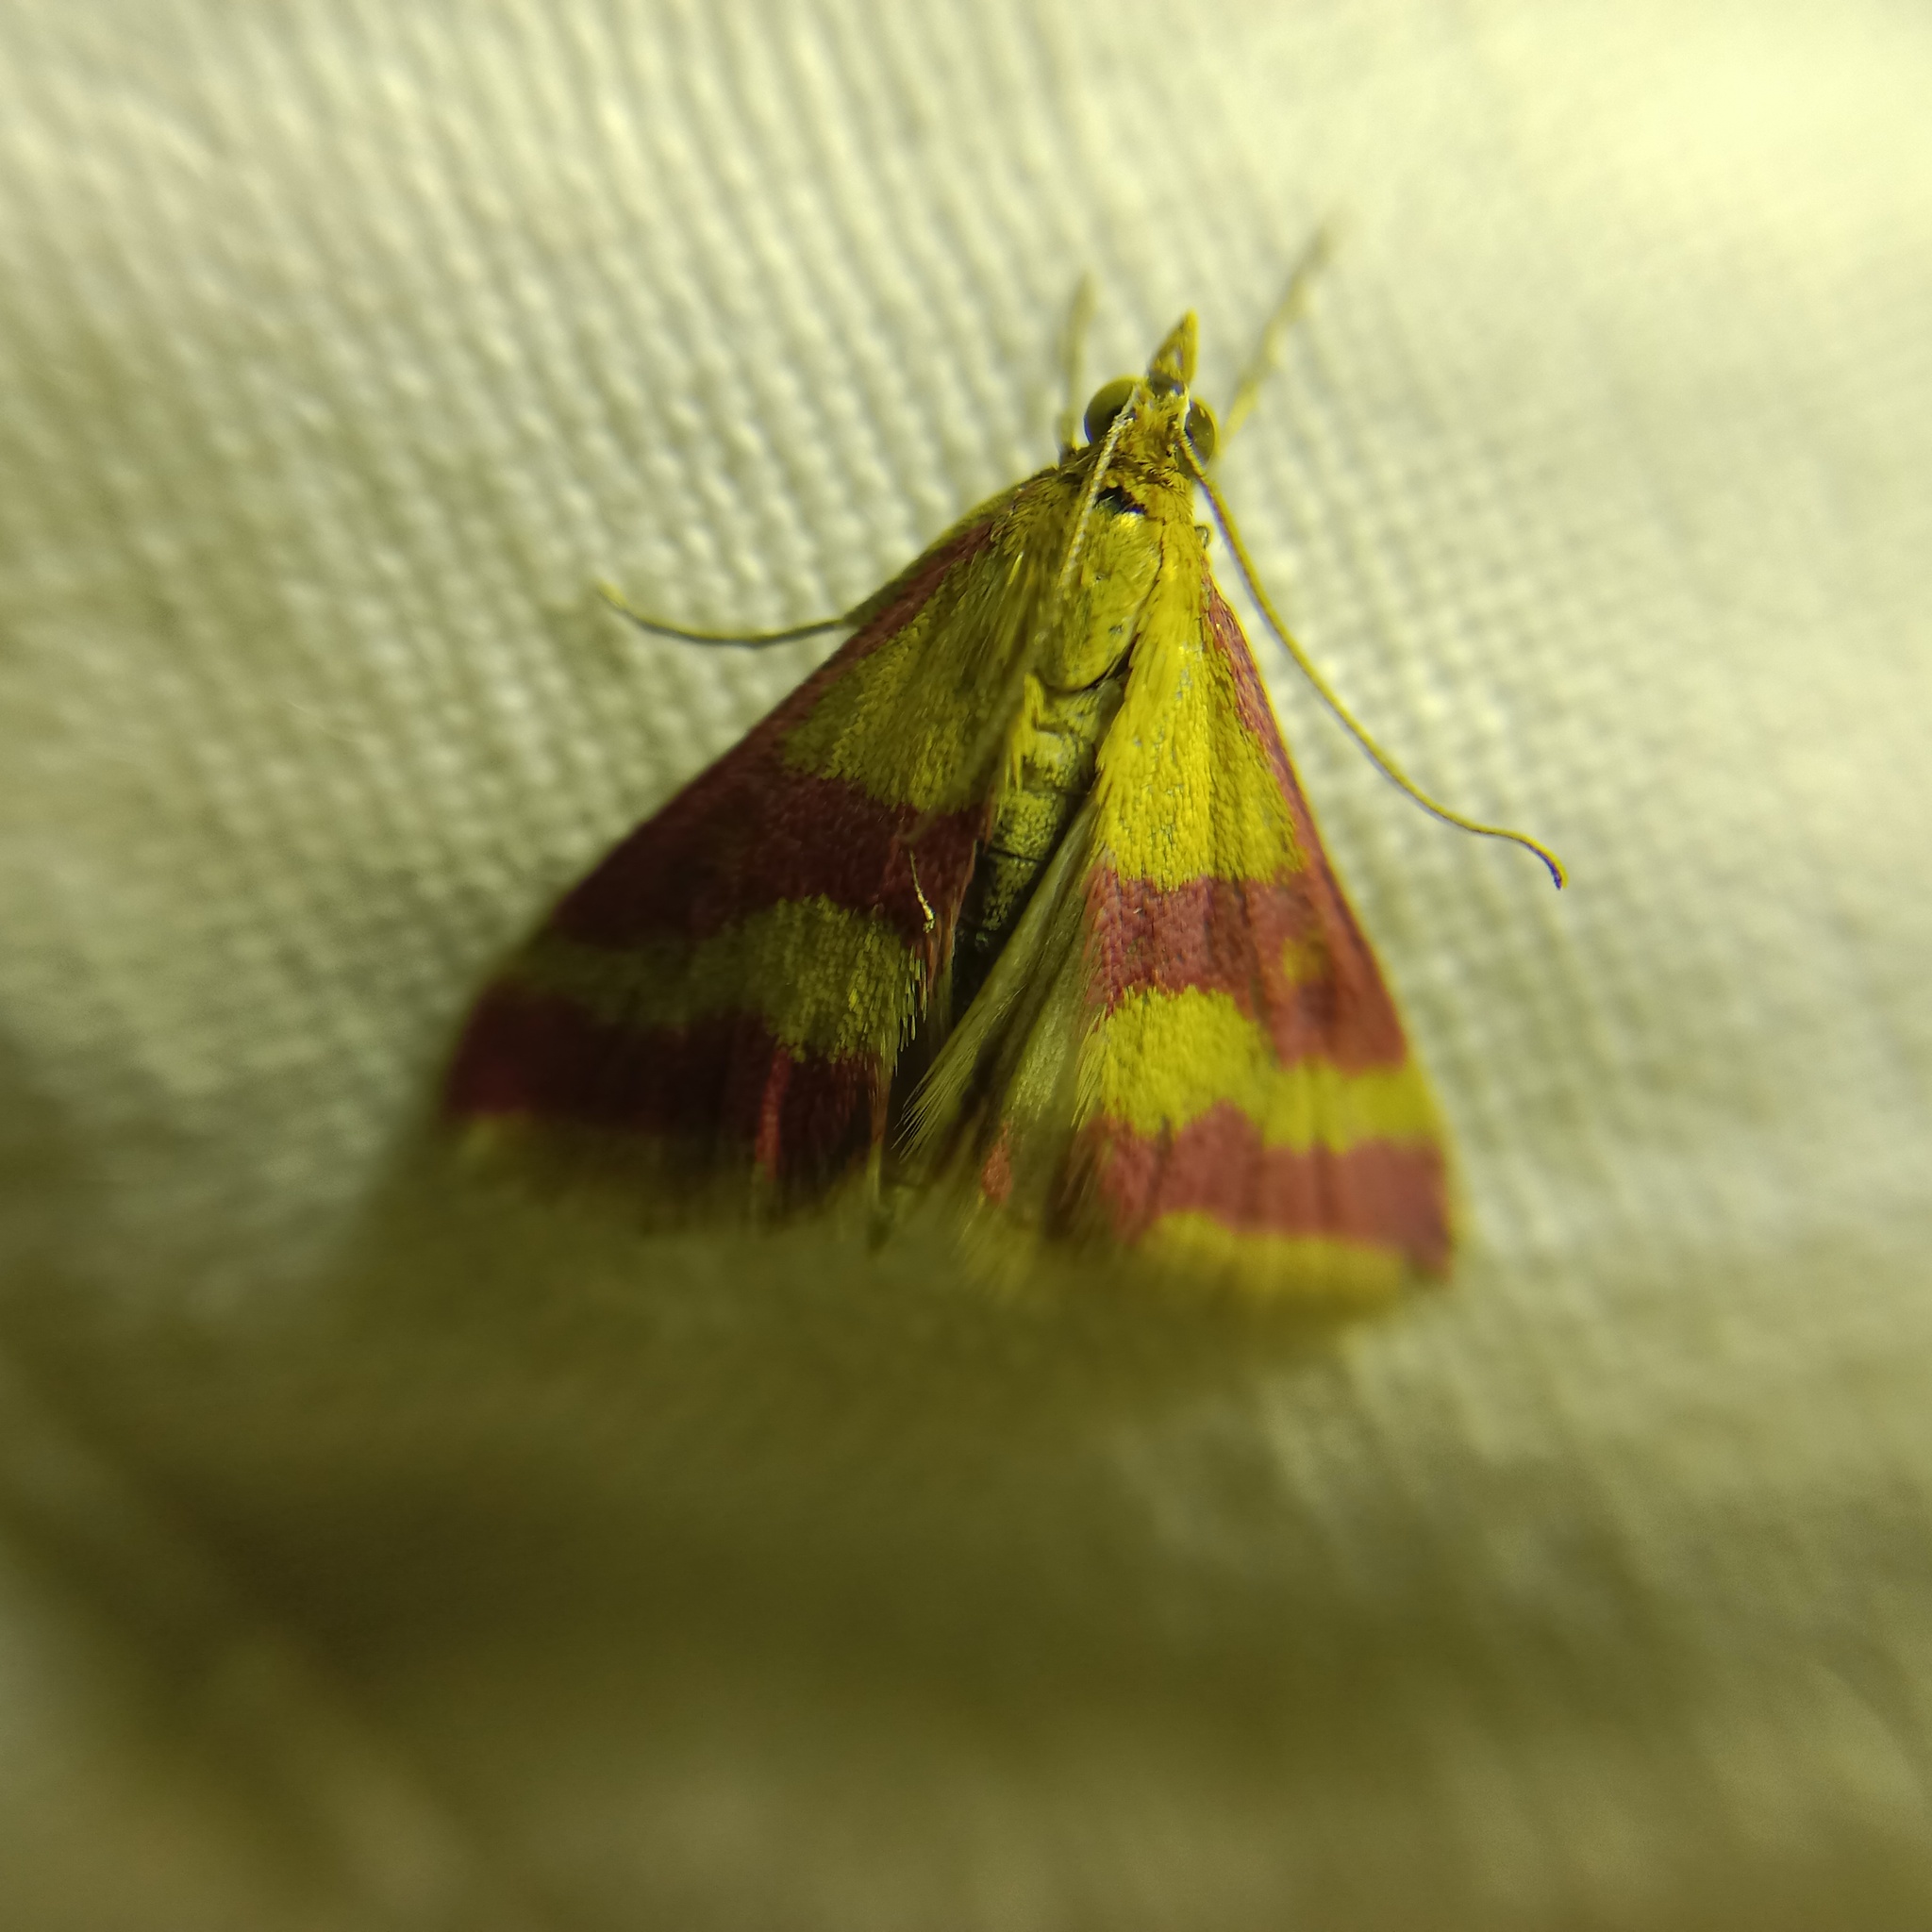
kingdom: Animalia
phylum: Arthropoda
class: Insecta
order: Lepidoptera
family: Crambidae
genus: Pyrausta
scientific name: Pyrausta sanguinalis
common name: Scarce crimson and gold
